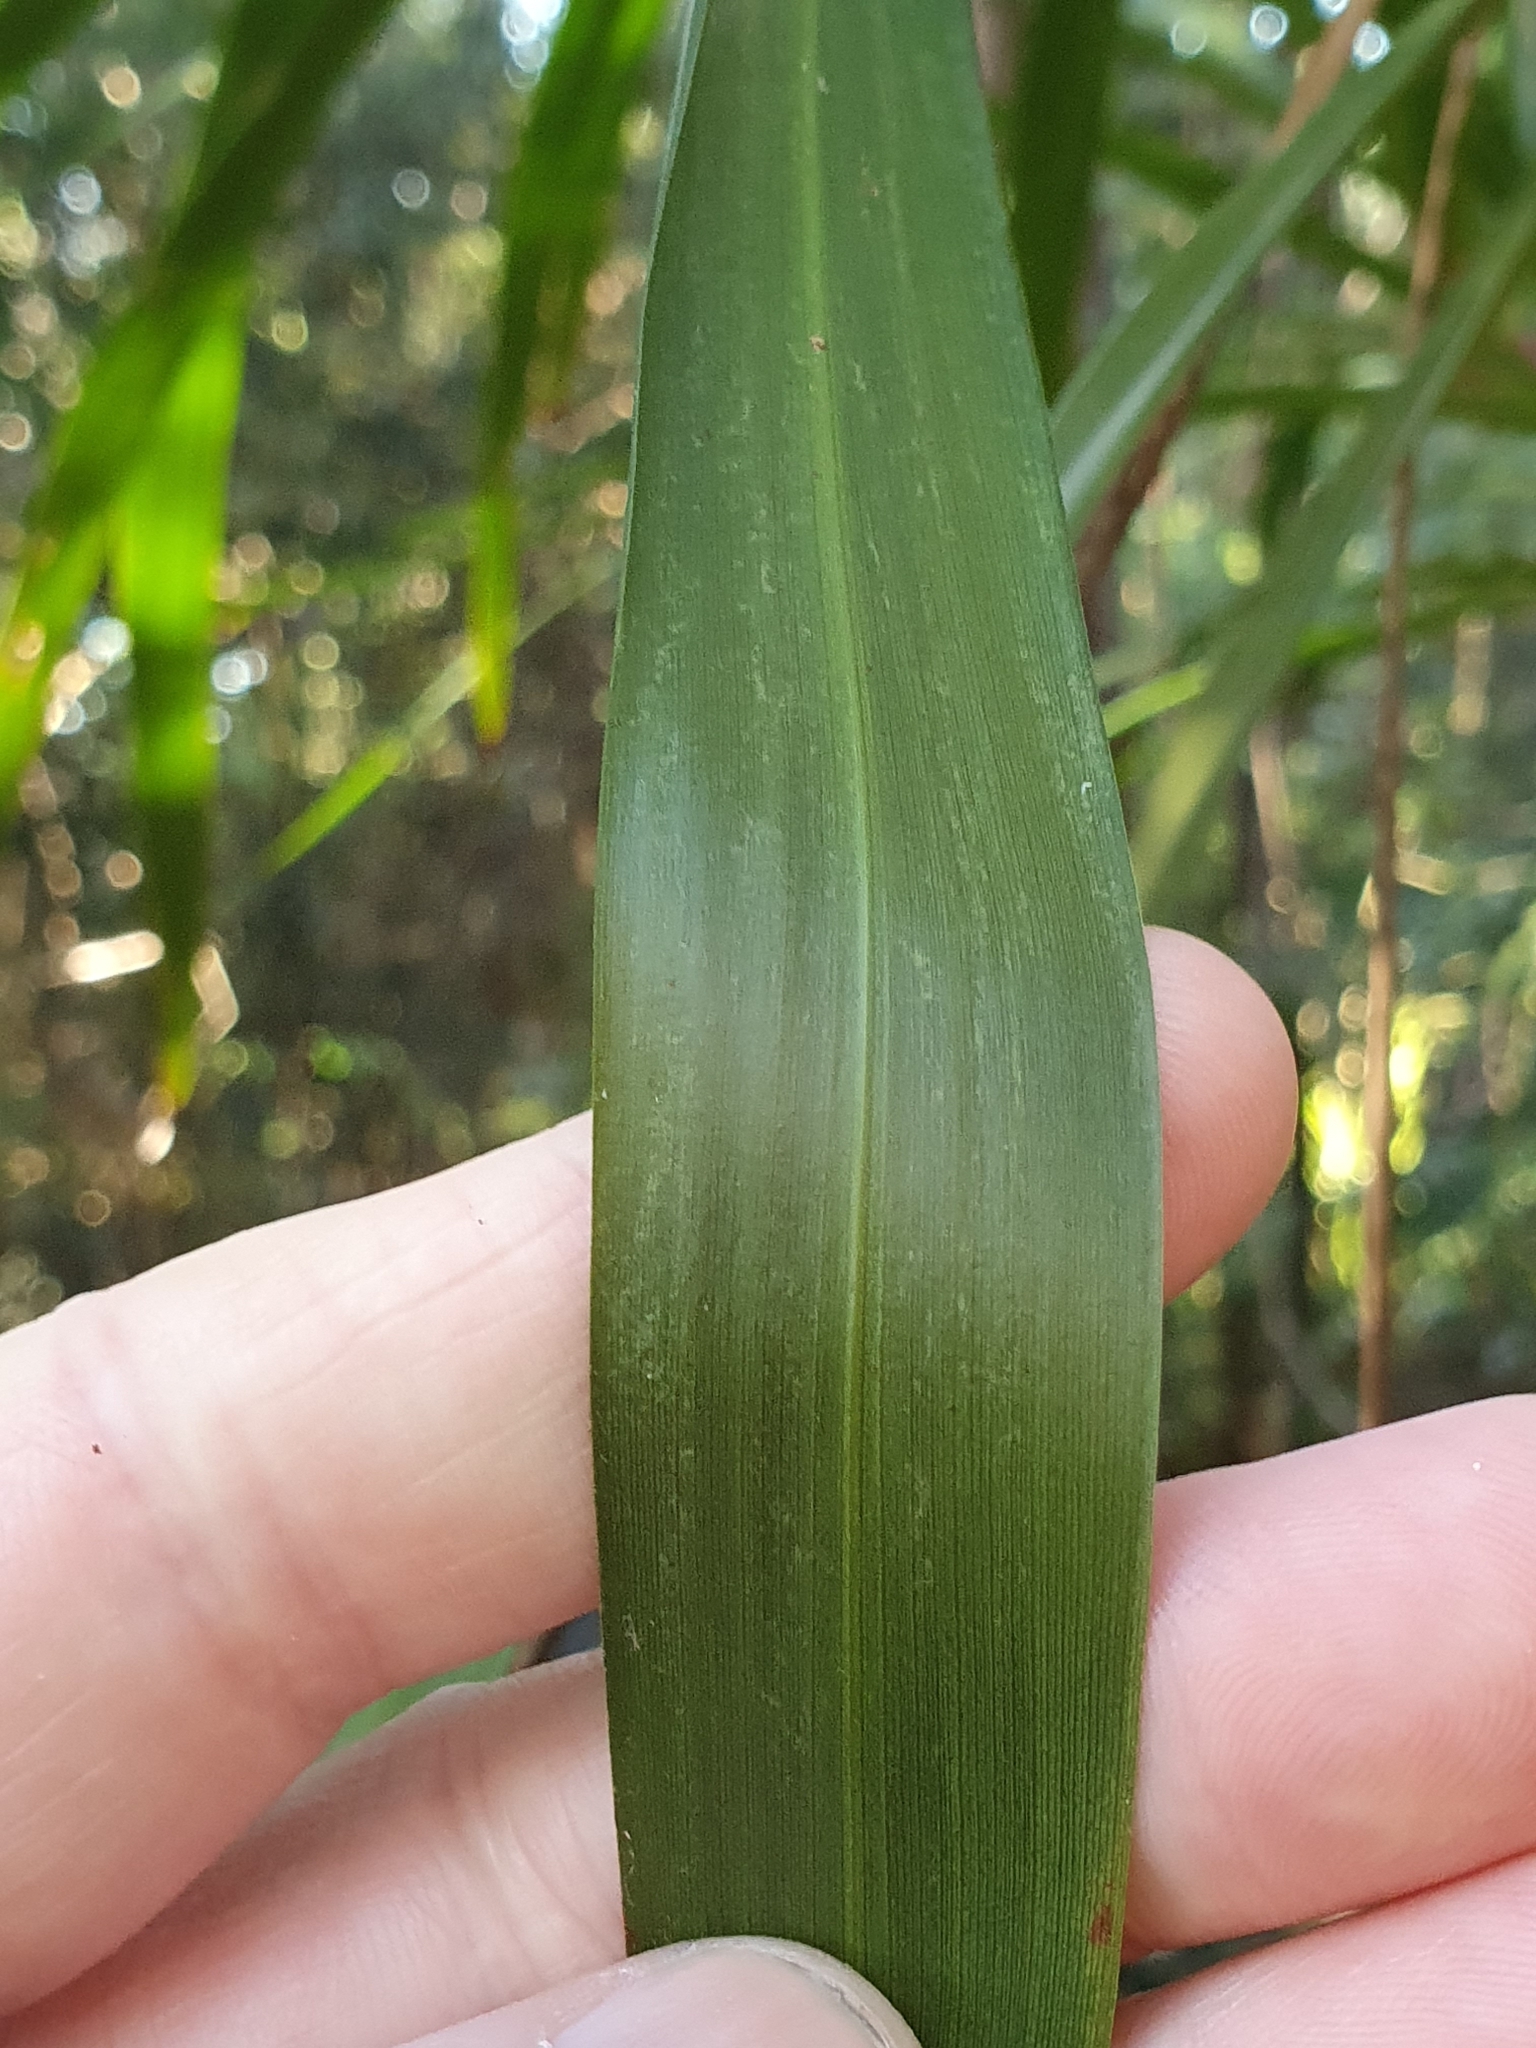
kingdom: Plantae
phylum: Tracheophyta
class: Liliopsida
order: Asparagales
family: Asparagaceae
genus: Cordyline
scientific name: Cordyline stricta
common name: Narrow-leaf palm-lily
